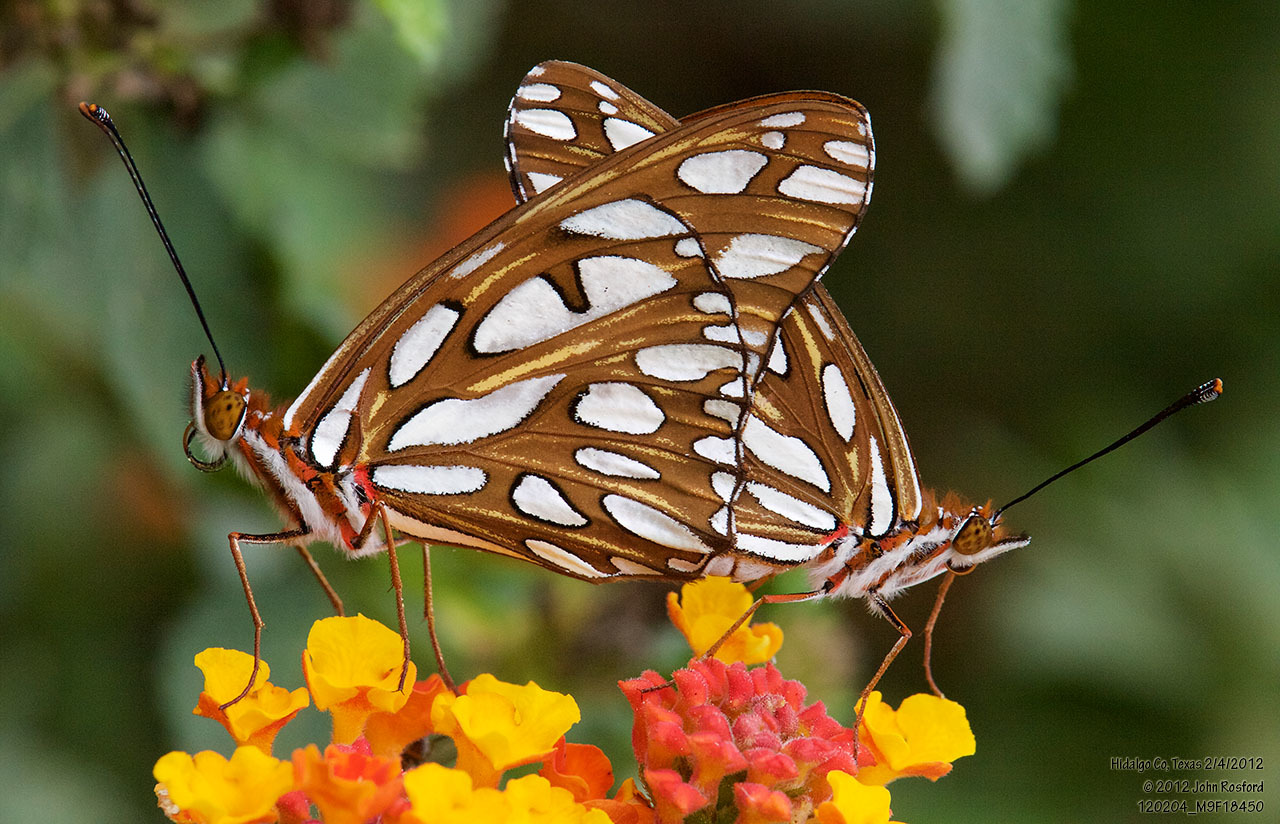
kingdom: Animalia
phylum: Arthropoda
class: Insecta
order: Lepidoptera
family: Nymphalidae
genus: Dione
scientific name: Dione vanillae
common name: Gulf fritillary
